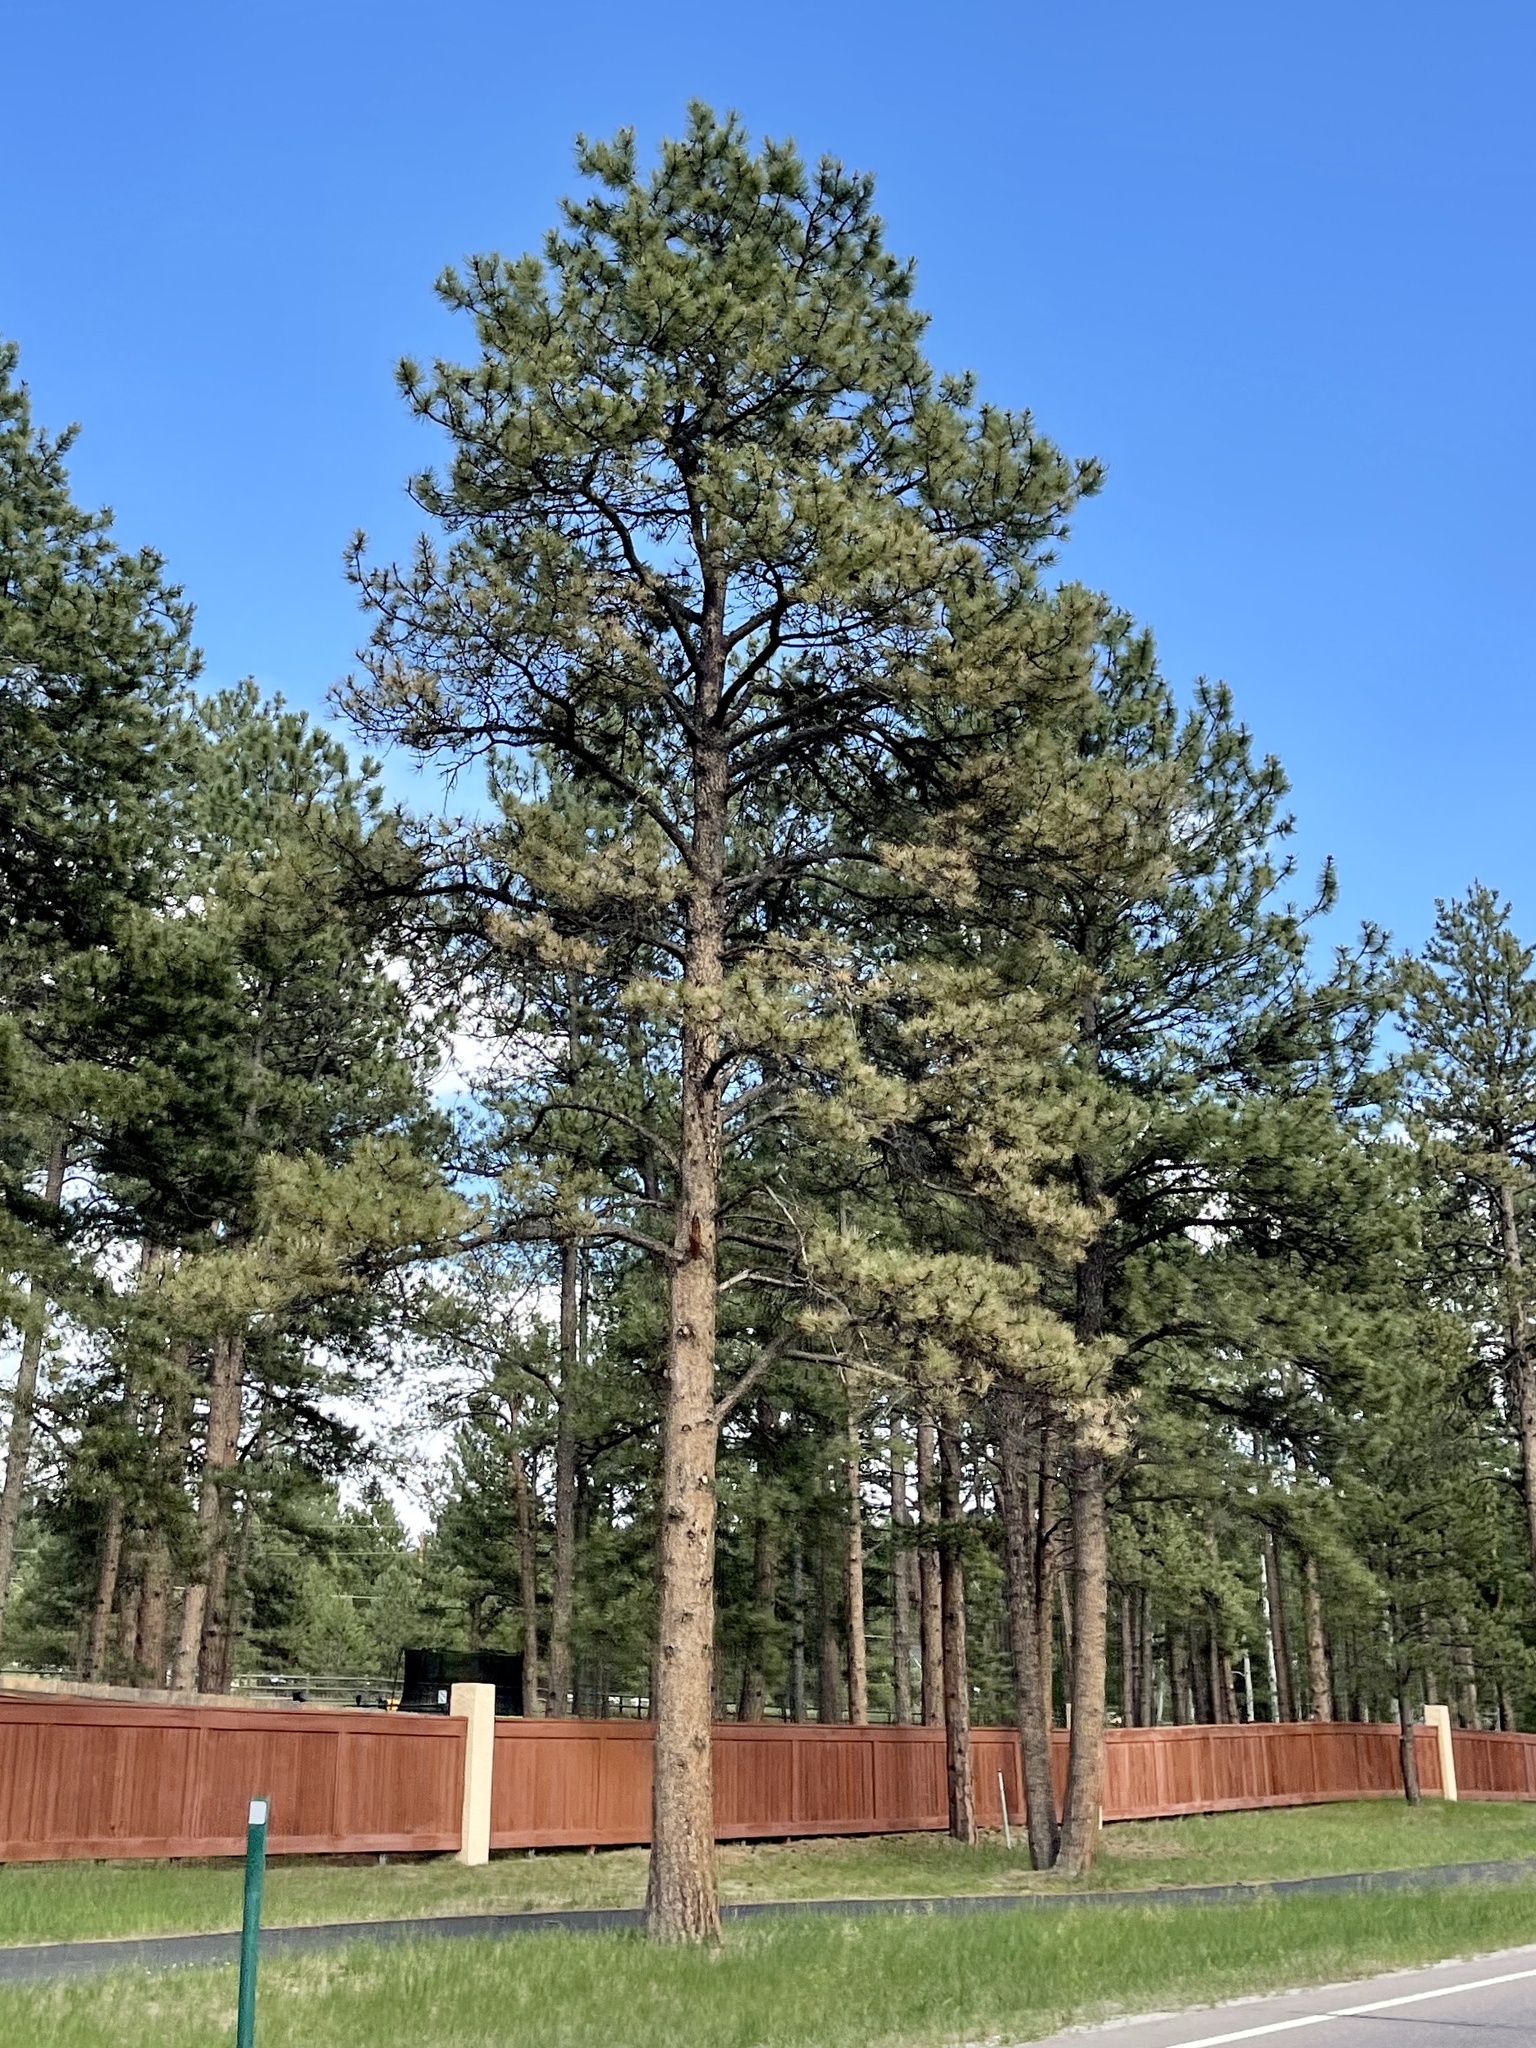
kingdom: Plantae
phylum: Tracheophyta
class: Pinopsida
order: Pinales
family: Pinaceae
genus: Pinus
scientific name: Pinus ponderosa
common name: Western yellow-pine
